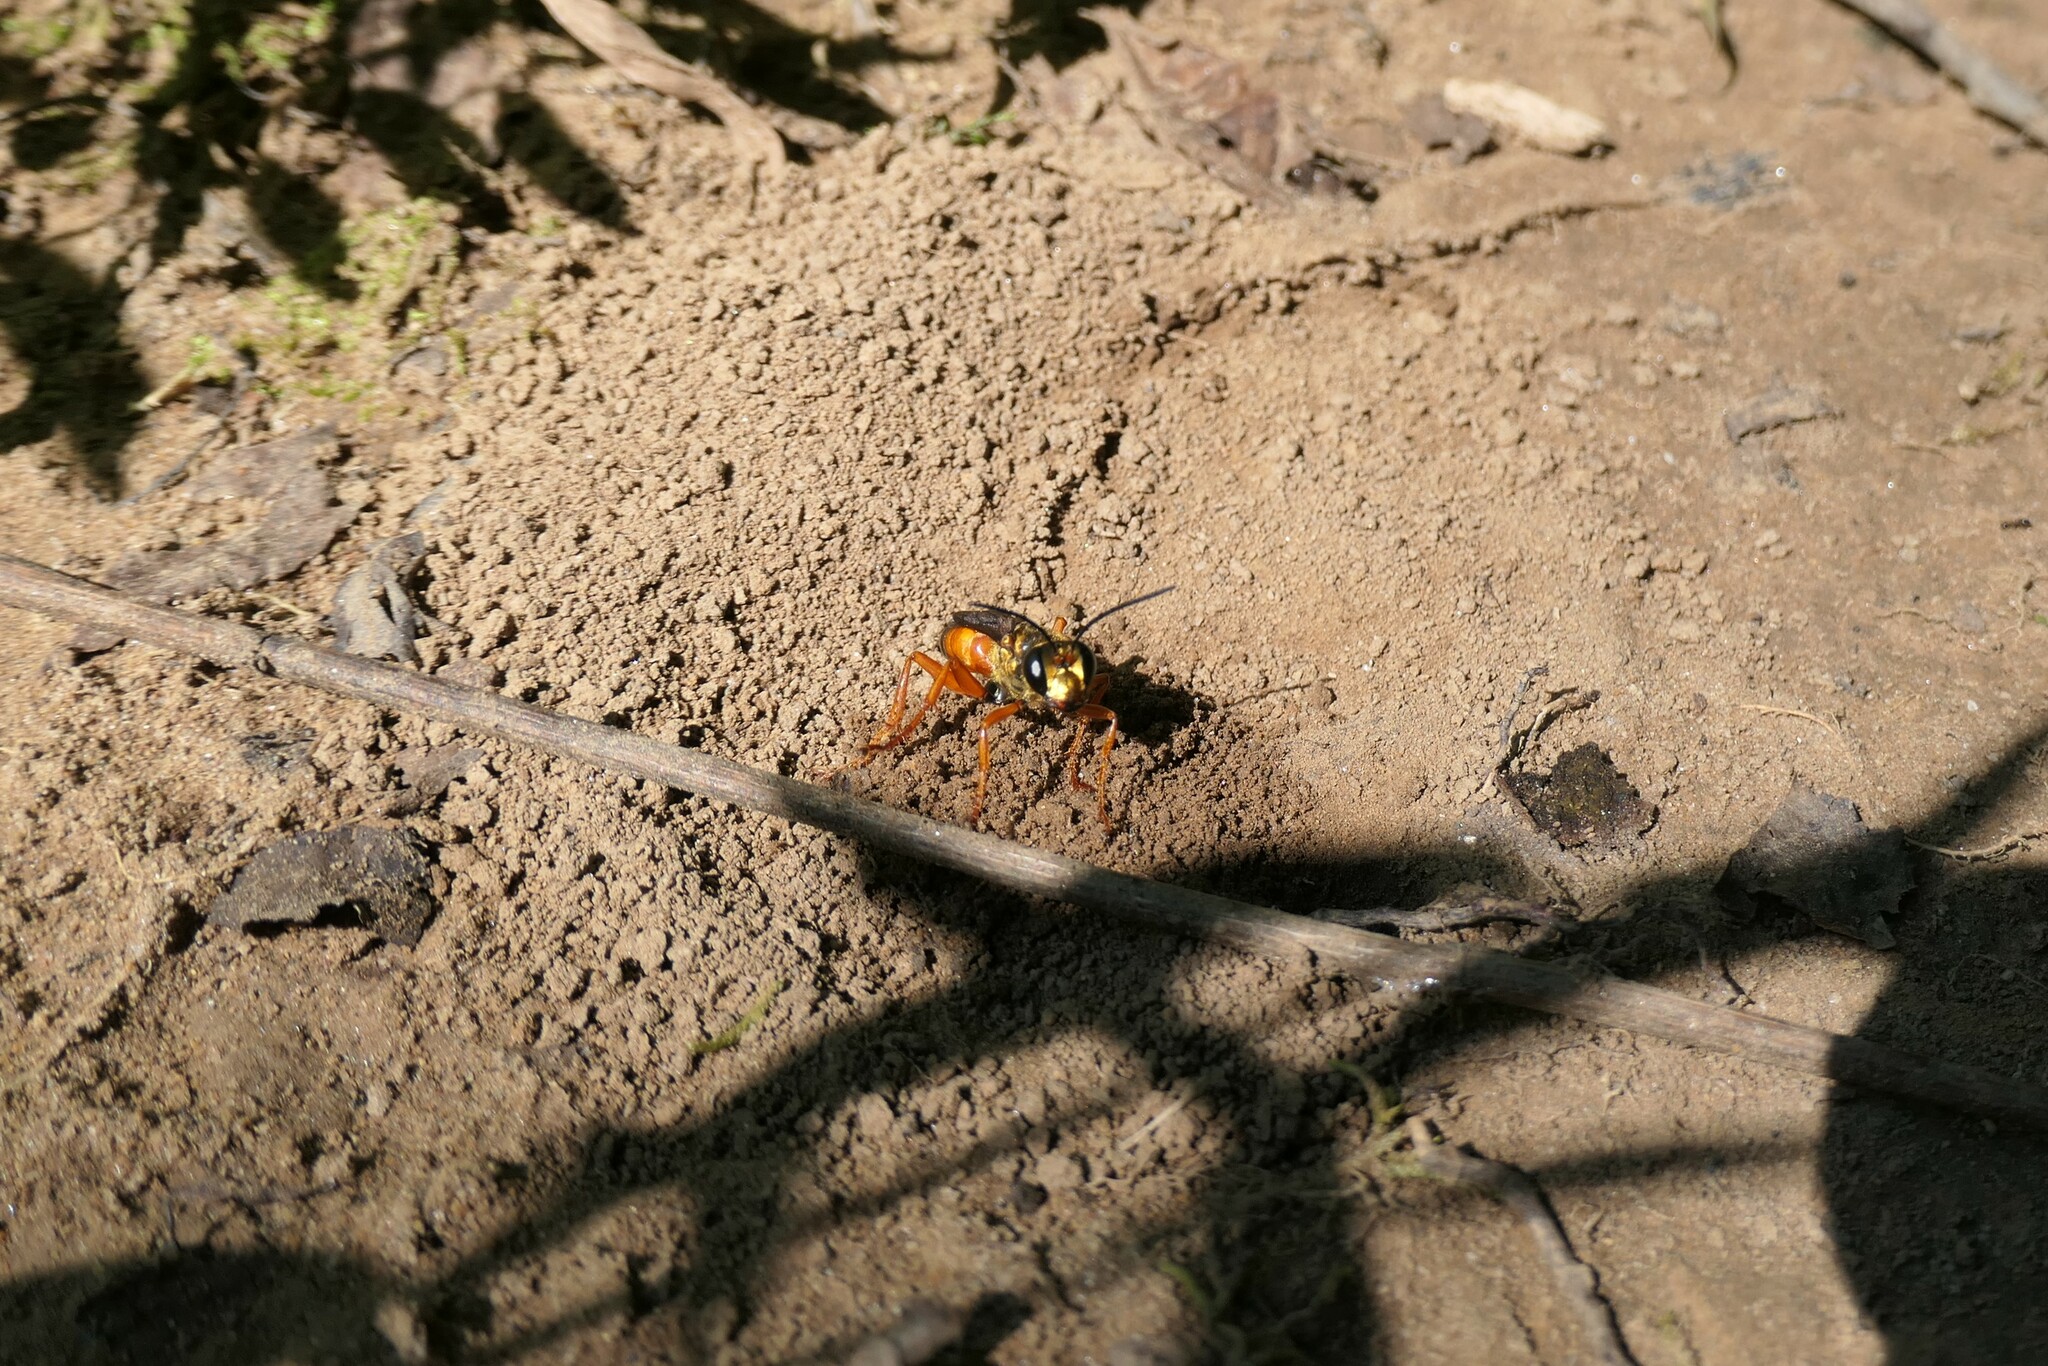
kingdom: Animalia
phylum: Arthropoda
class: Insecta
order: Hymenoptera
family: Sphecidae
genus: Sphex
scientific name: Sphex ichneumoneus
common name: Great golden digger wasp
